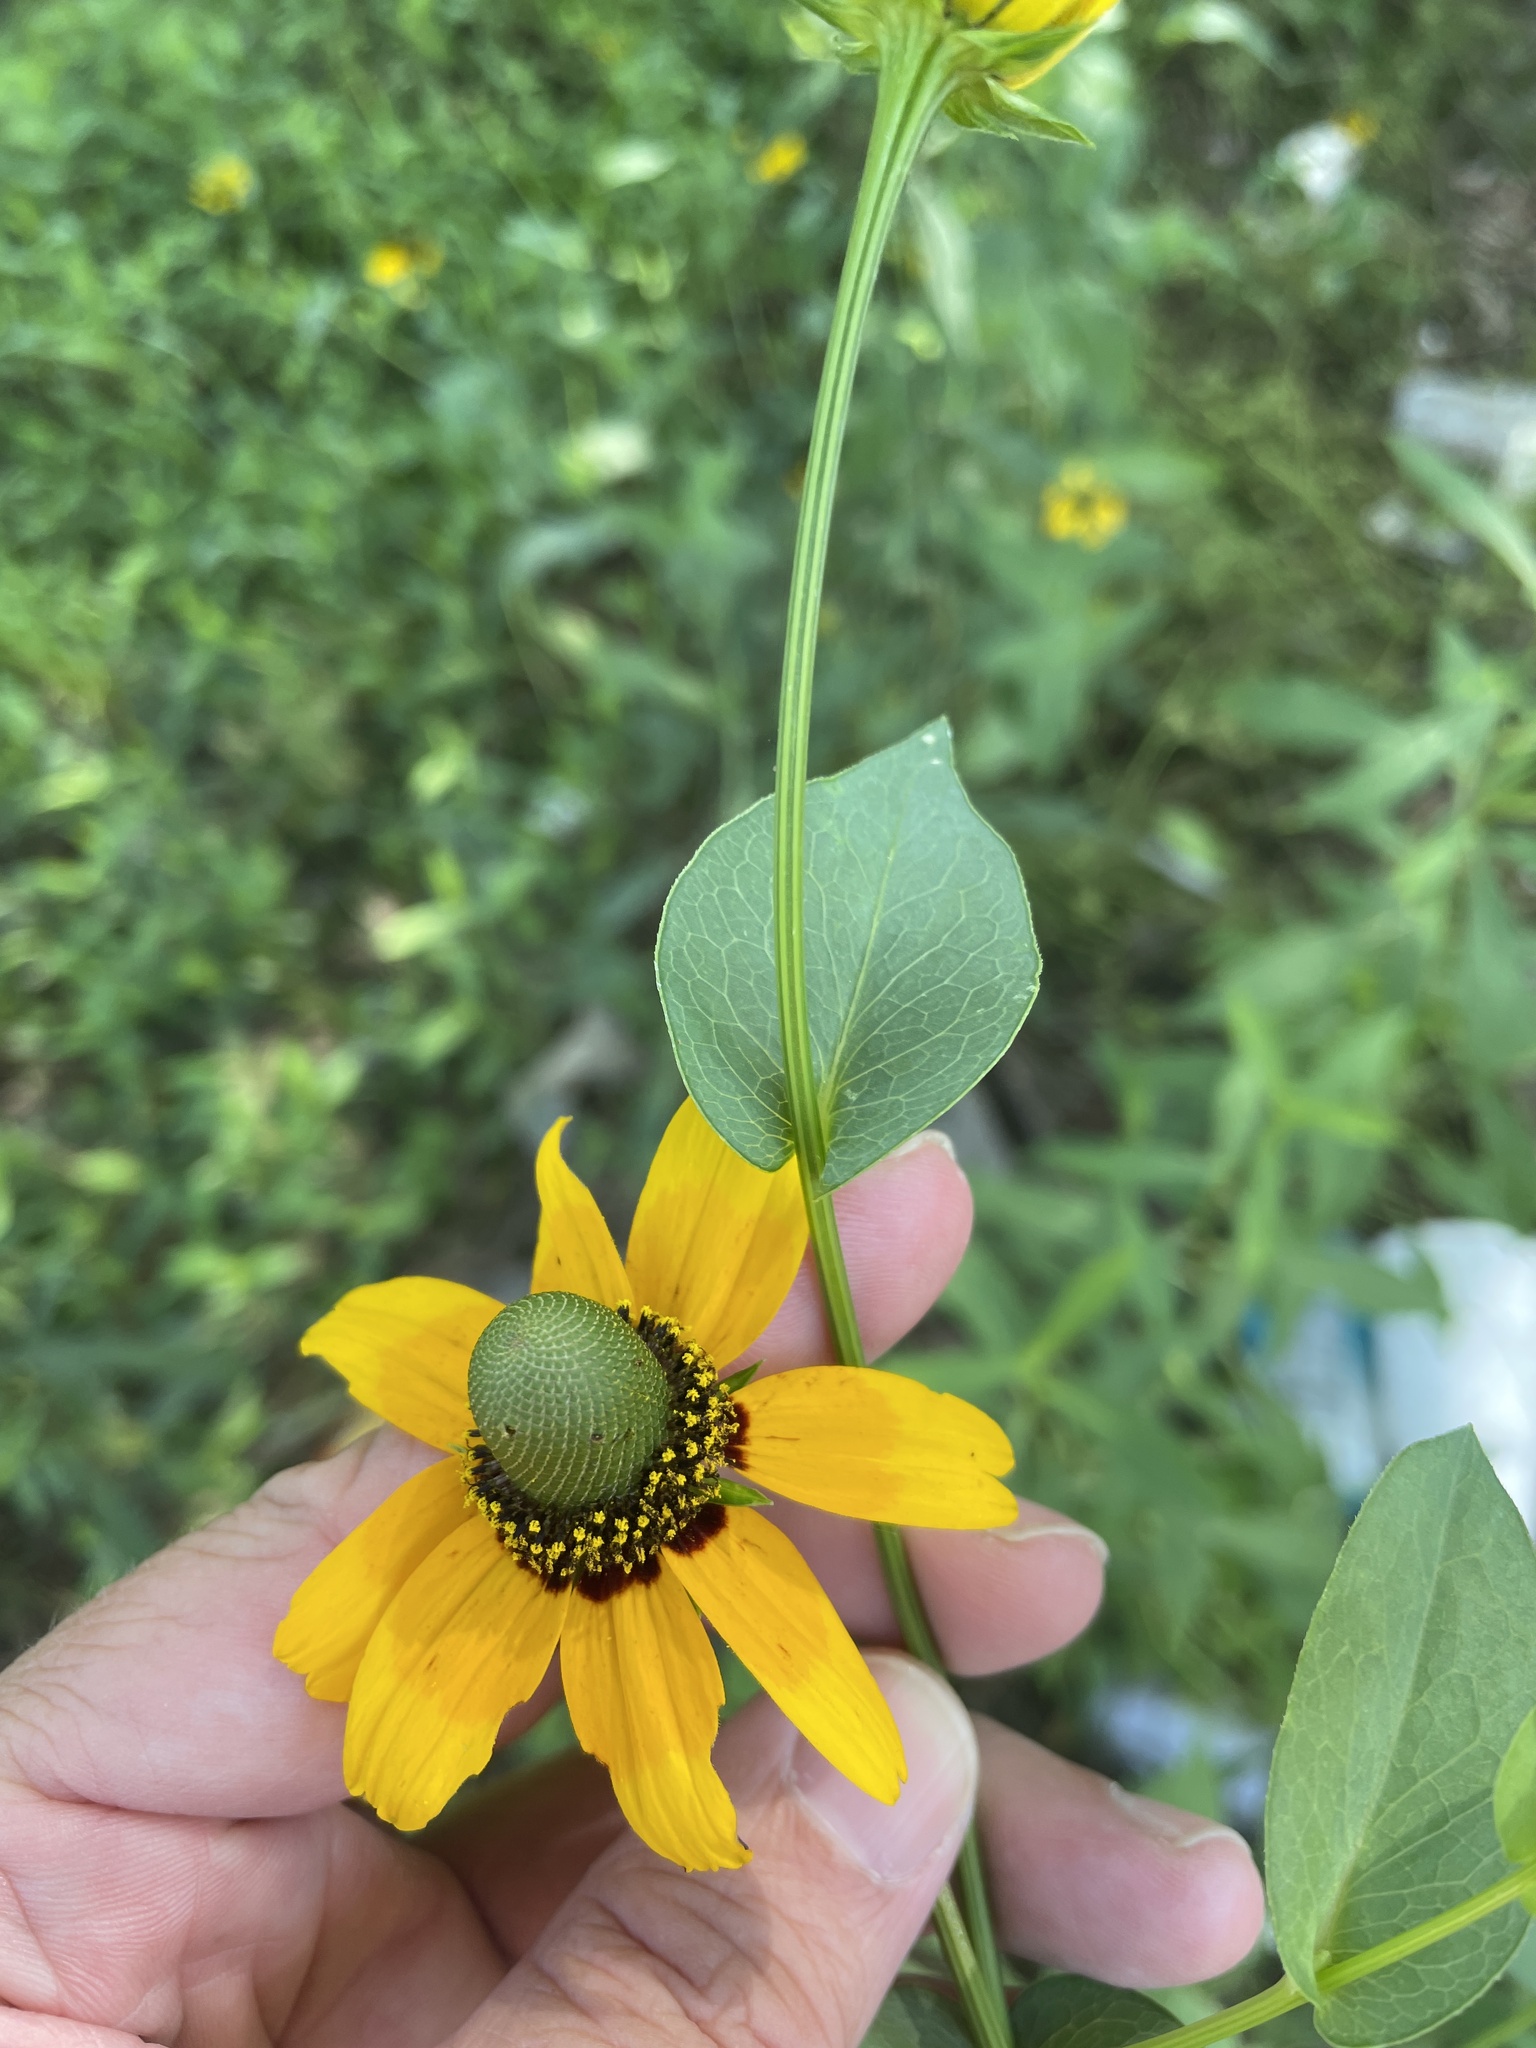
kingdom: Plantae
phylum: Tracheophyta
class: Magnoliopsida
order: Asterales
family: Asteraceae
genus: Rudbeckia
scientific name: Rudbeckia amplexicaulis
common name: Clasping-leaf coneflower
